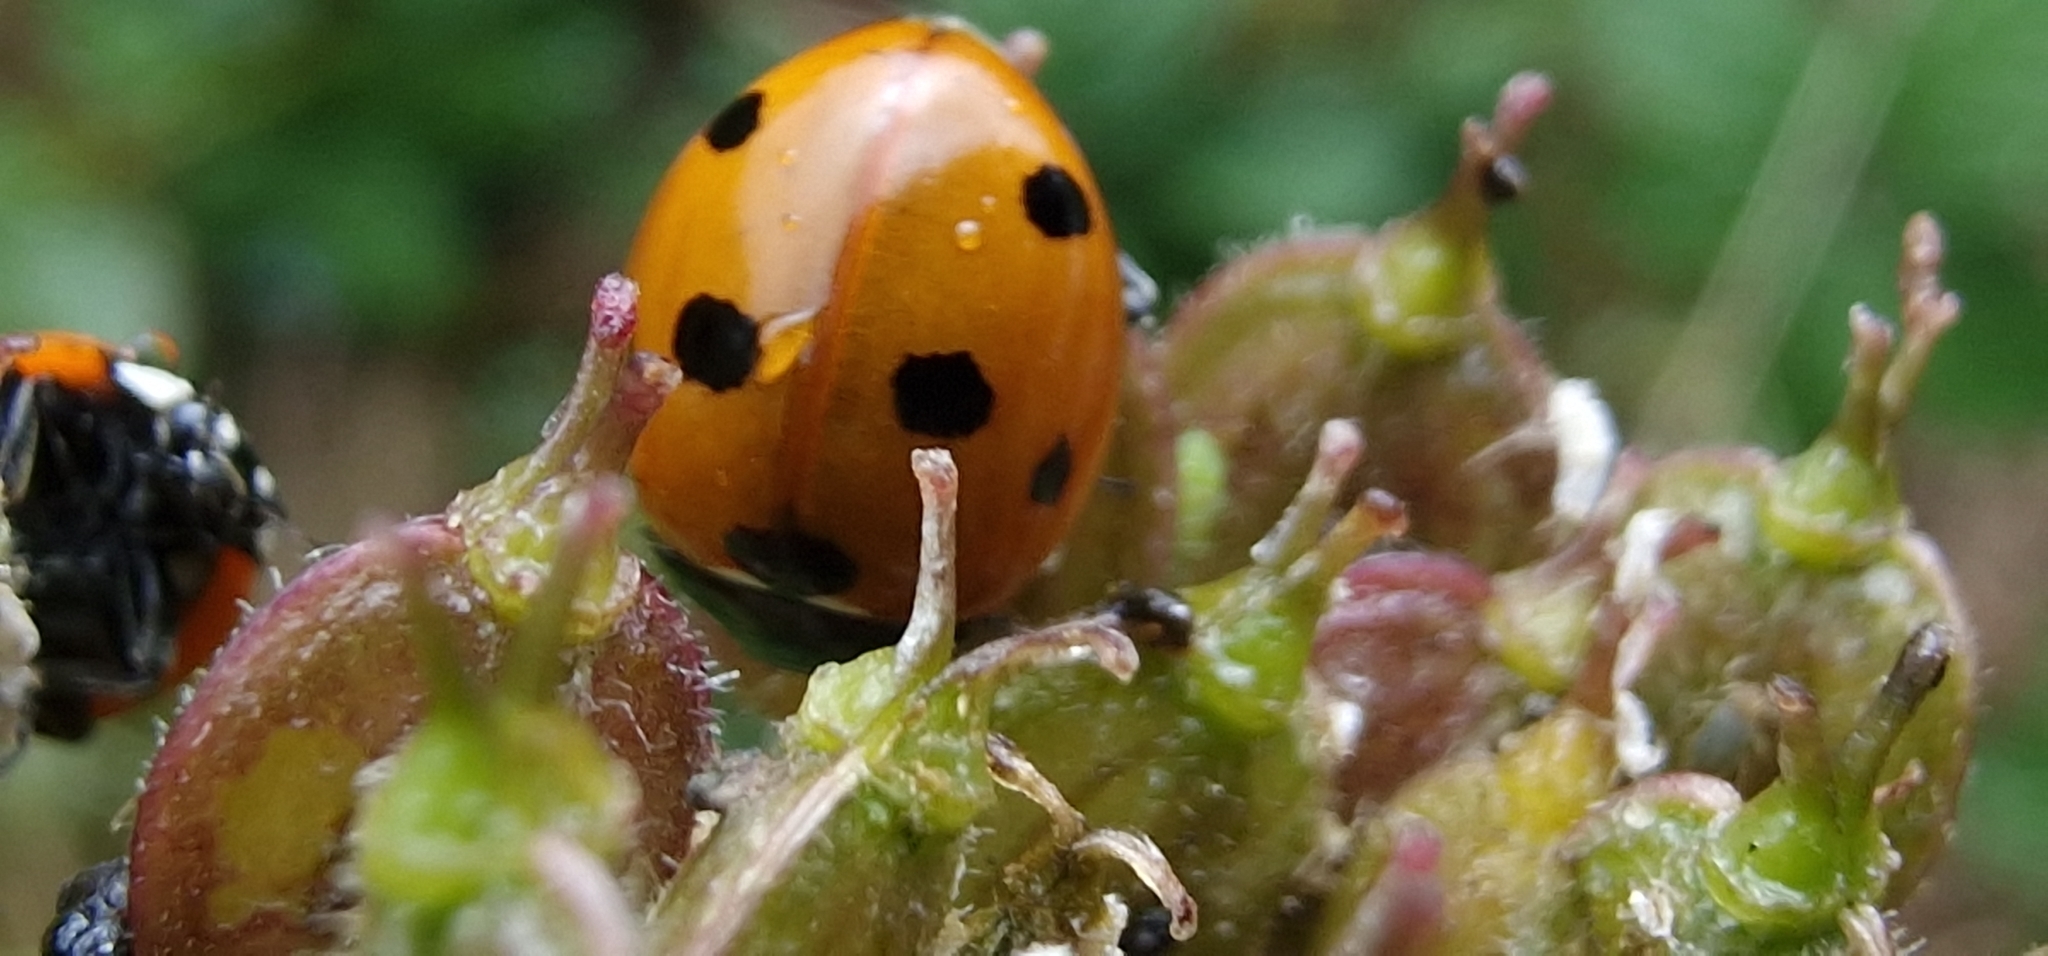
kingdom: Animalia
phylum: Arthropoda
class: Insecta
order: Coleoptera
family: Coccinellidae
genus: Coccinella
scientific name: Coccinella septempunctata
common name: Sevenspotted lady beetle
